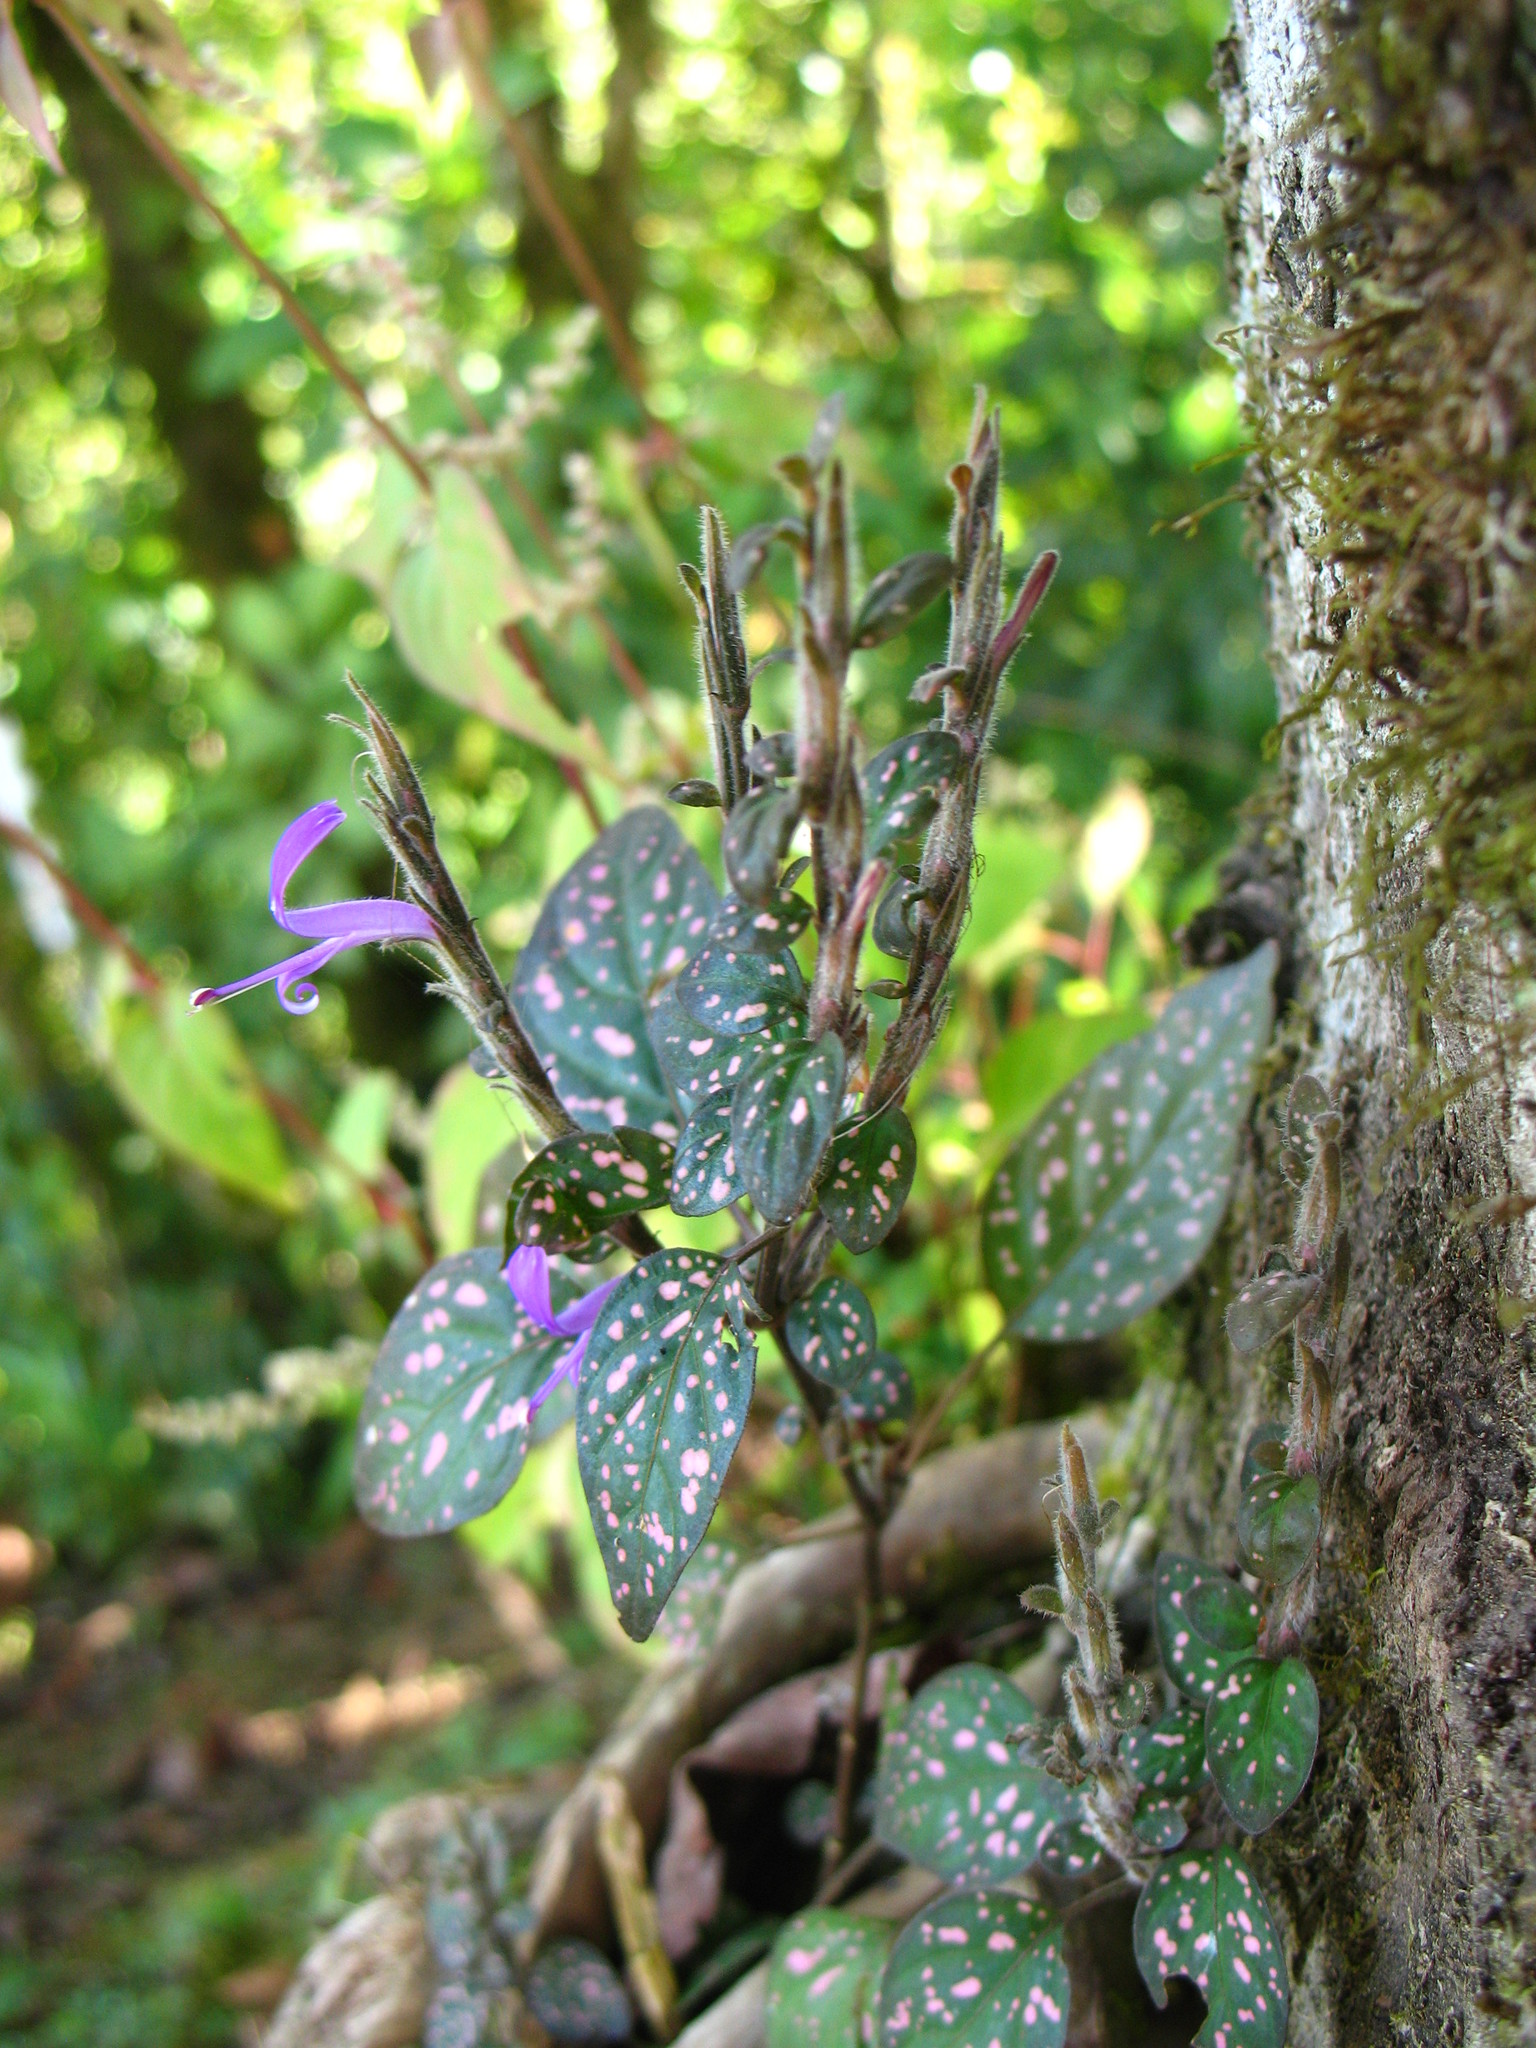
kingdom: Plantae
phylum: Tracheophyta
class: Magnoliopsida
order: Lamiales
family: Acanthaceae
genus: Hypoestes
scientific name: Hypoestes phyllostachya
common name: Polkadot-plant
